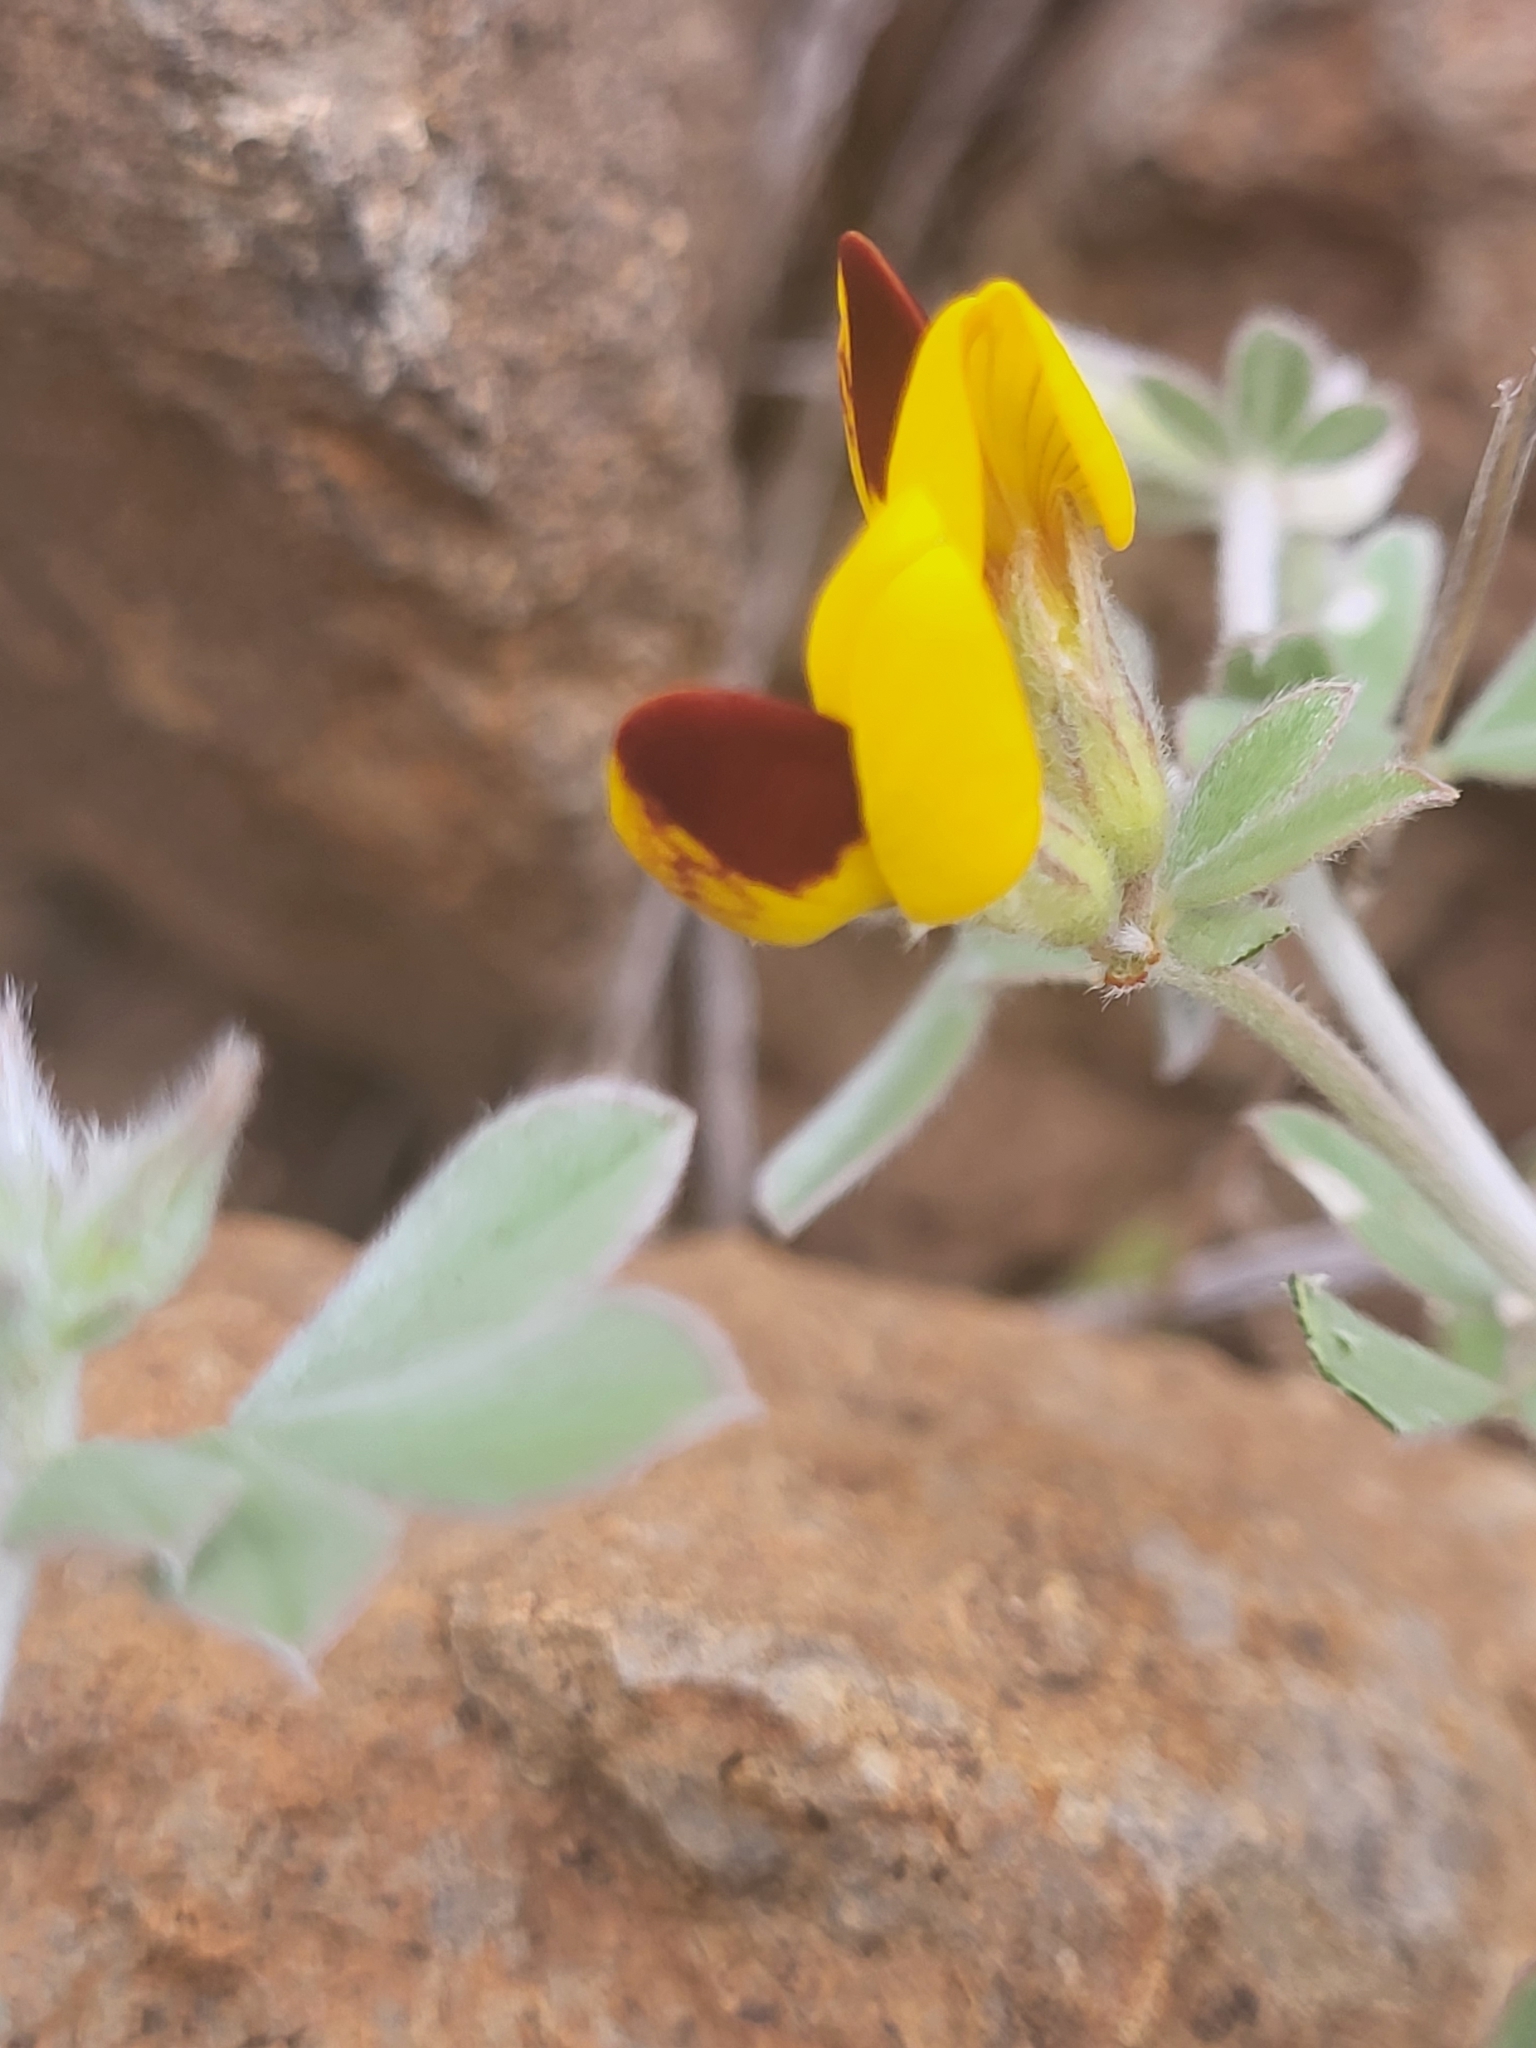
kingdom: Plantae
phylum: Tracheophyta
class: Magnoliopsida
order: Fabales
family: Fabaceae
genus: Lotus
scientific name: Lotus oliveirae
